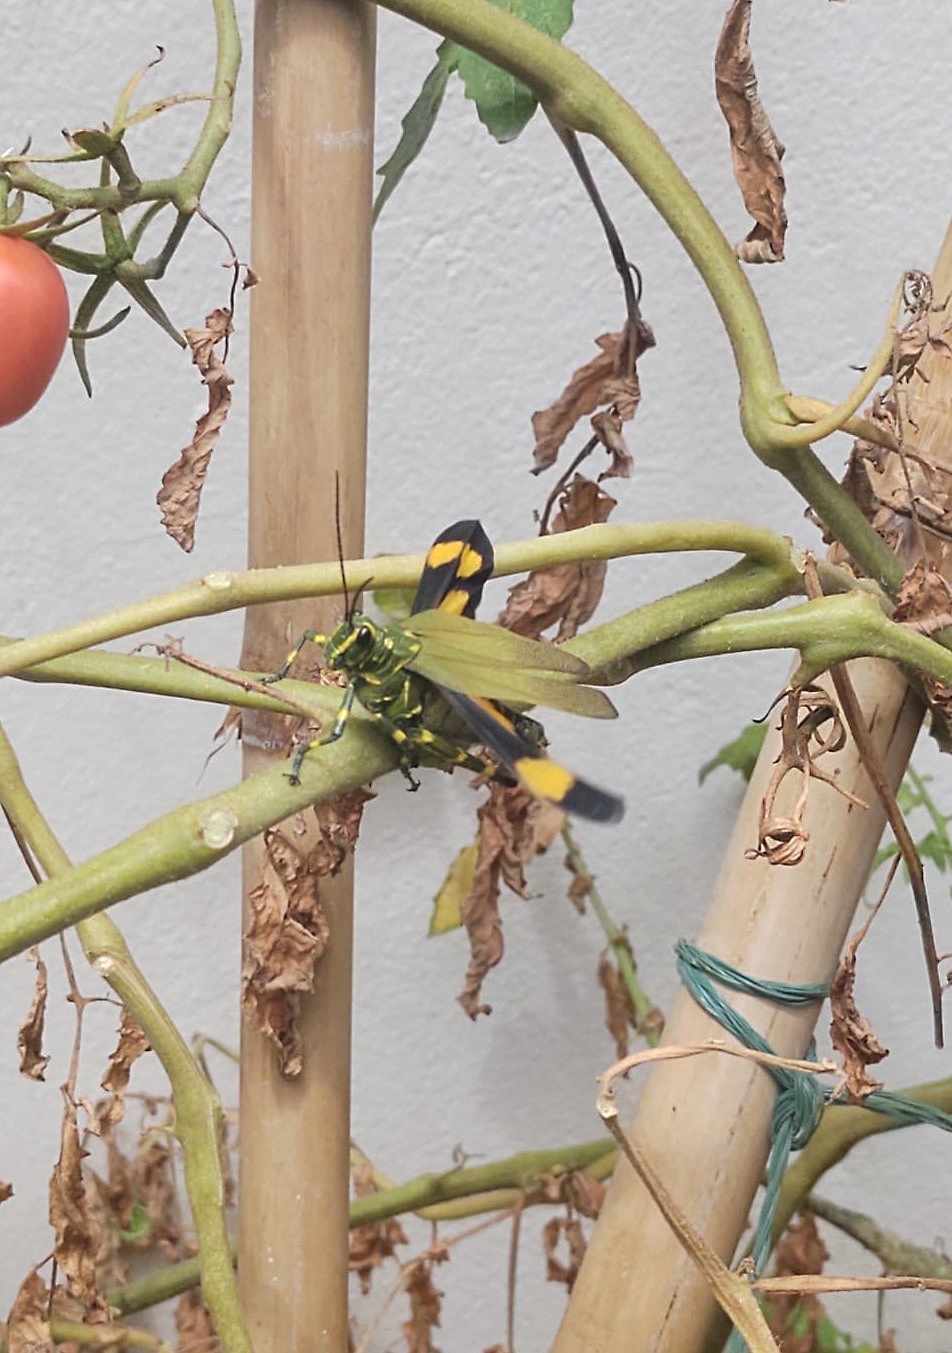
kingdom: Animalia
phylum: Arthropoda
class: Insecta
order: Orthoptera
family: Romaleidae
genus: Chromacris
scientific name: Chromacris speciosa
